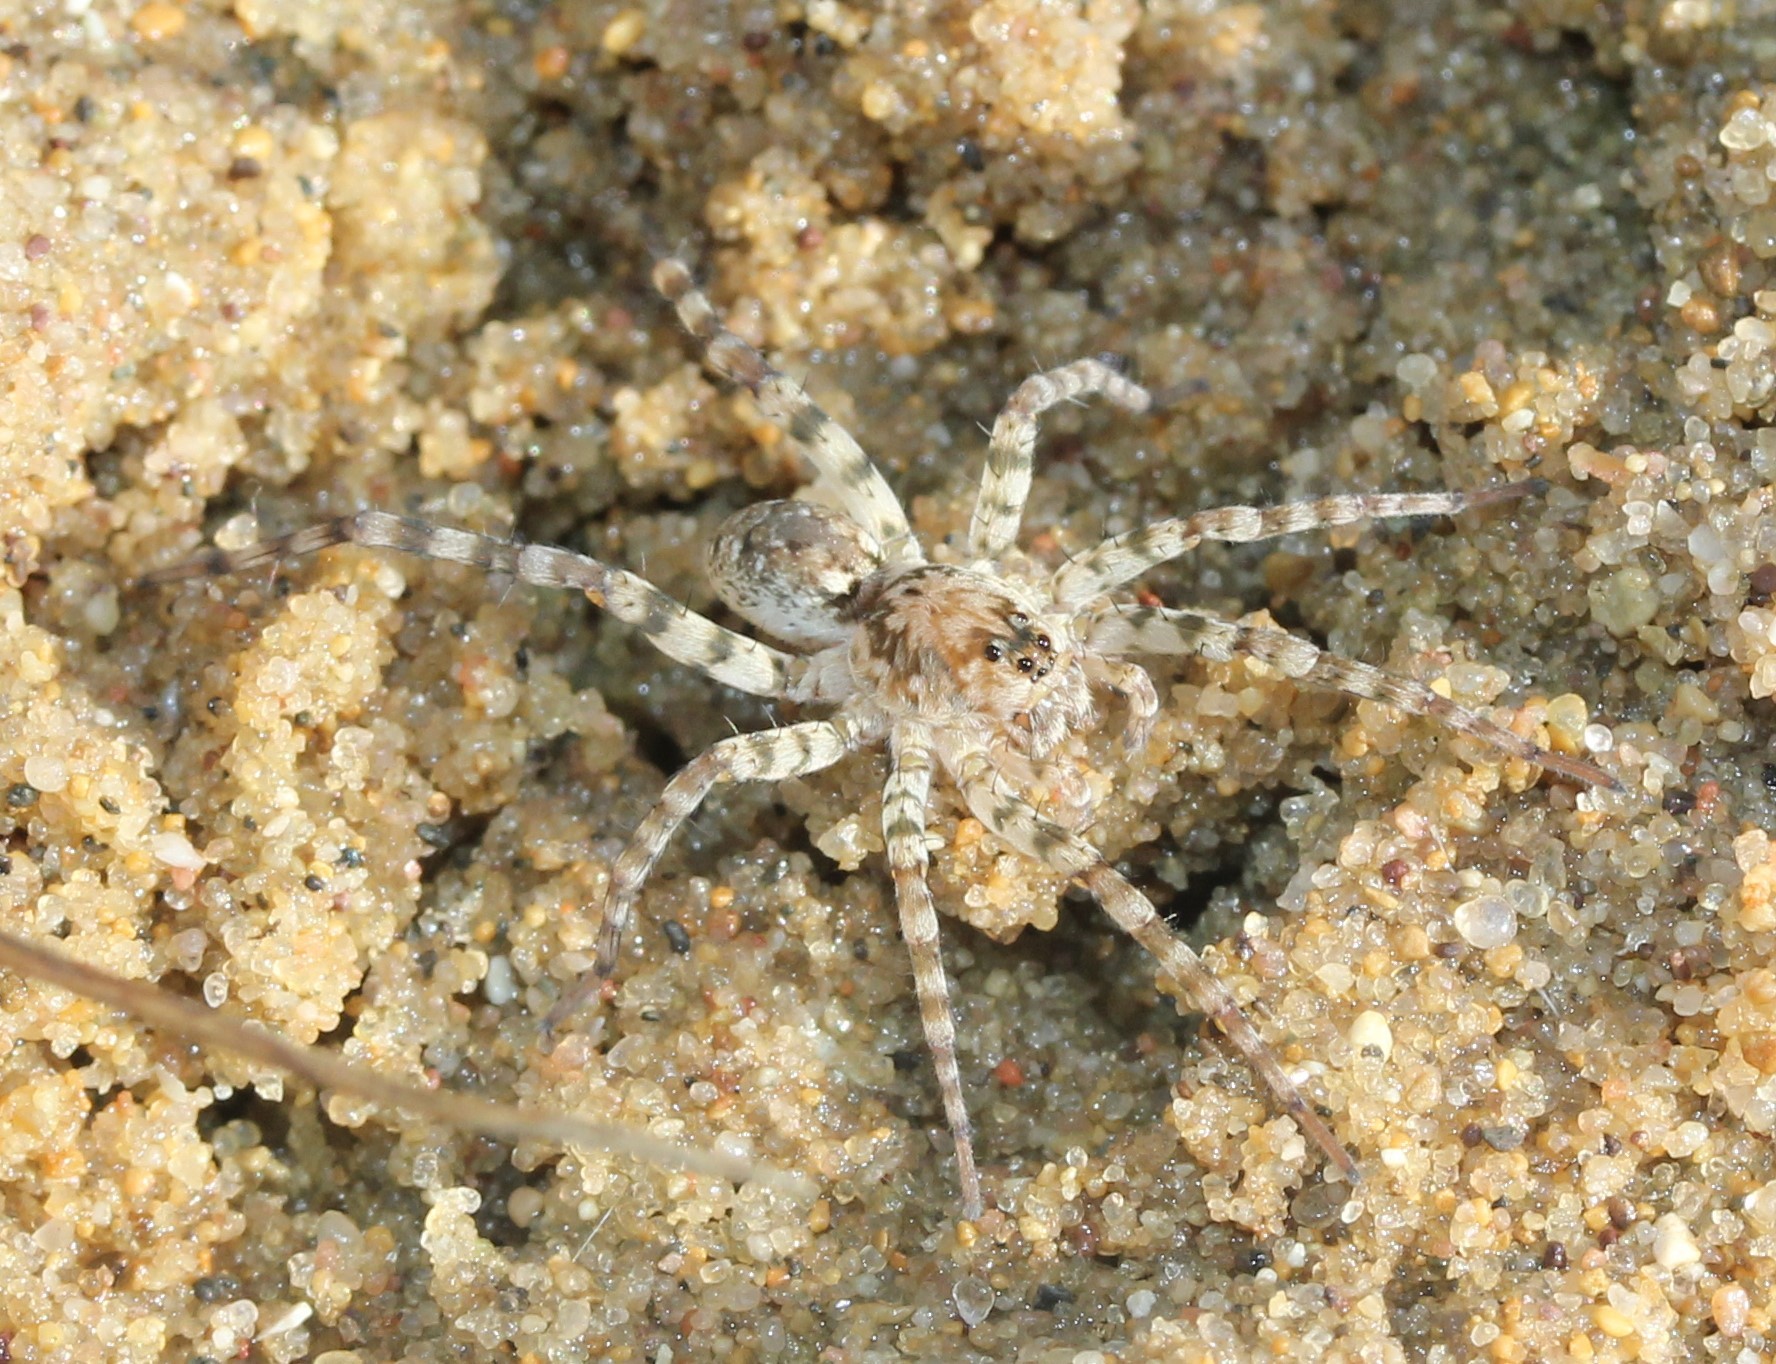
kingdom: Animalia
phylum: Arthropoda
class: Arachnida
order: Araneae
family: Lycosidae
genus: Arctosa
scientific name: Arctosa littoralis
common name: Wolf spiders
